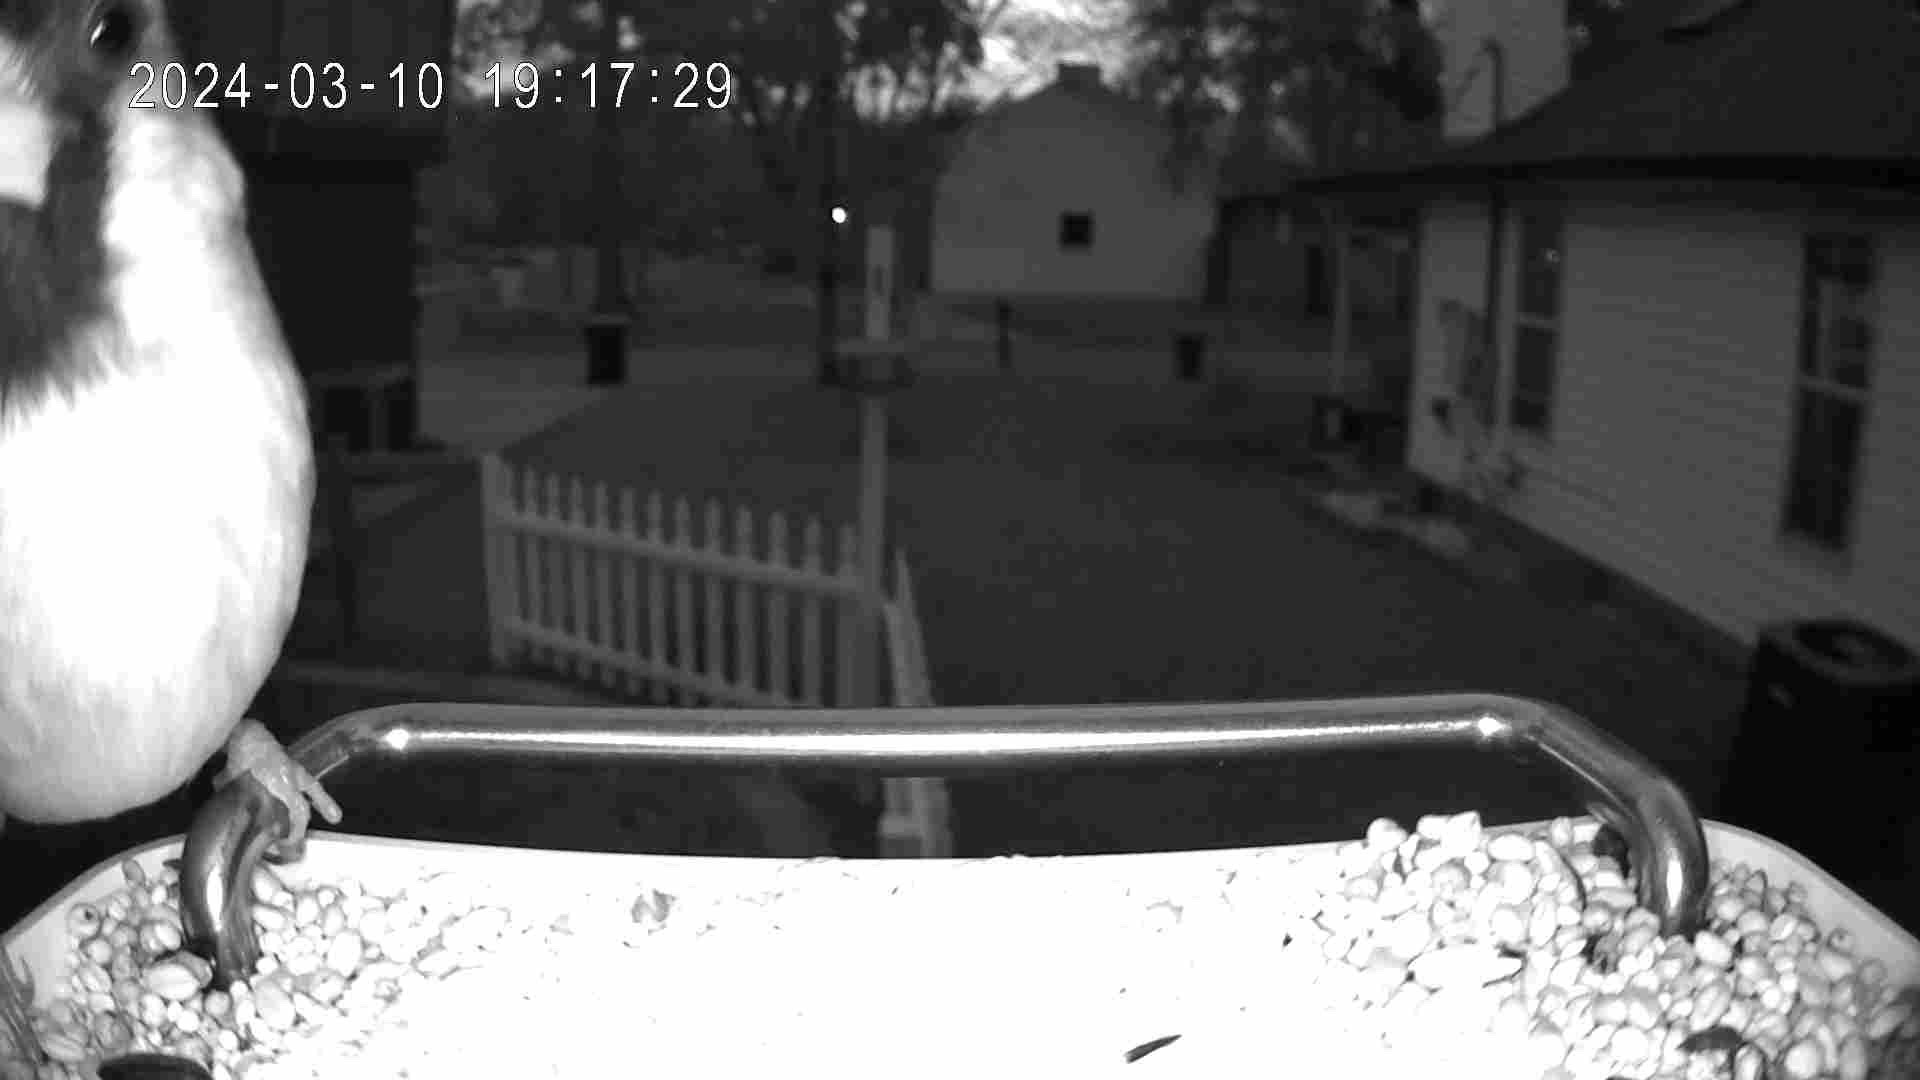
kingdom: Animalia
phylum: Chordata
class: Aves
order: Passeriformes
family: Cardinalidae
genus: Cardinalis
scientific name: Cardinalis cardinalis
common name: Northern cardinal
